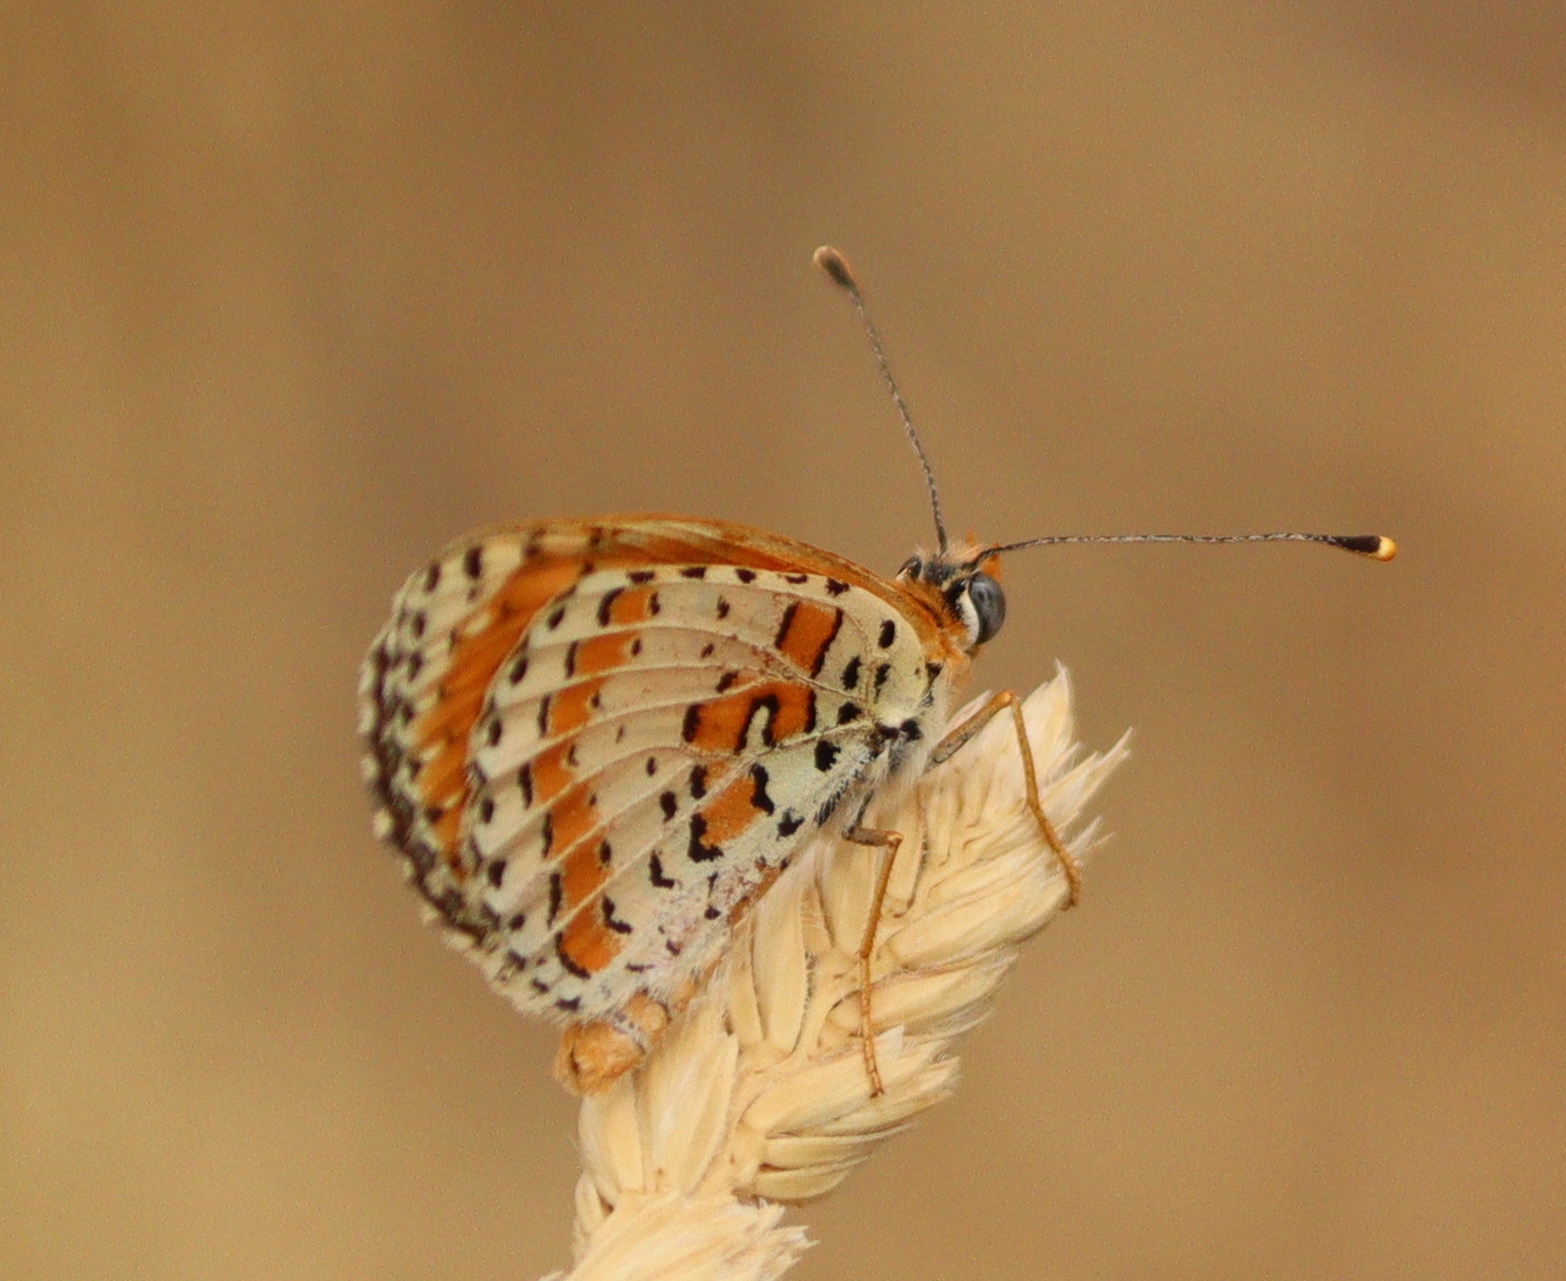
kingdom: Animalia
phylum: Arthropoda
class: Insecta
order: Lepidoptera
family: Nymphalidae
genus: Melitaea
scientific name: Melitaea didyma
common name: Spotted fritillary
